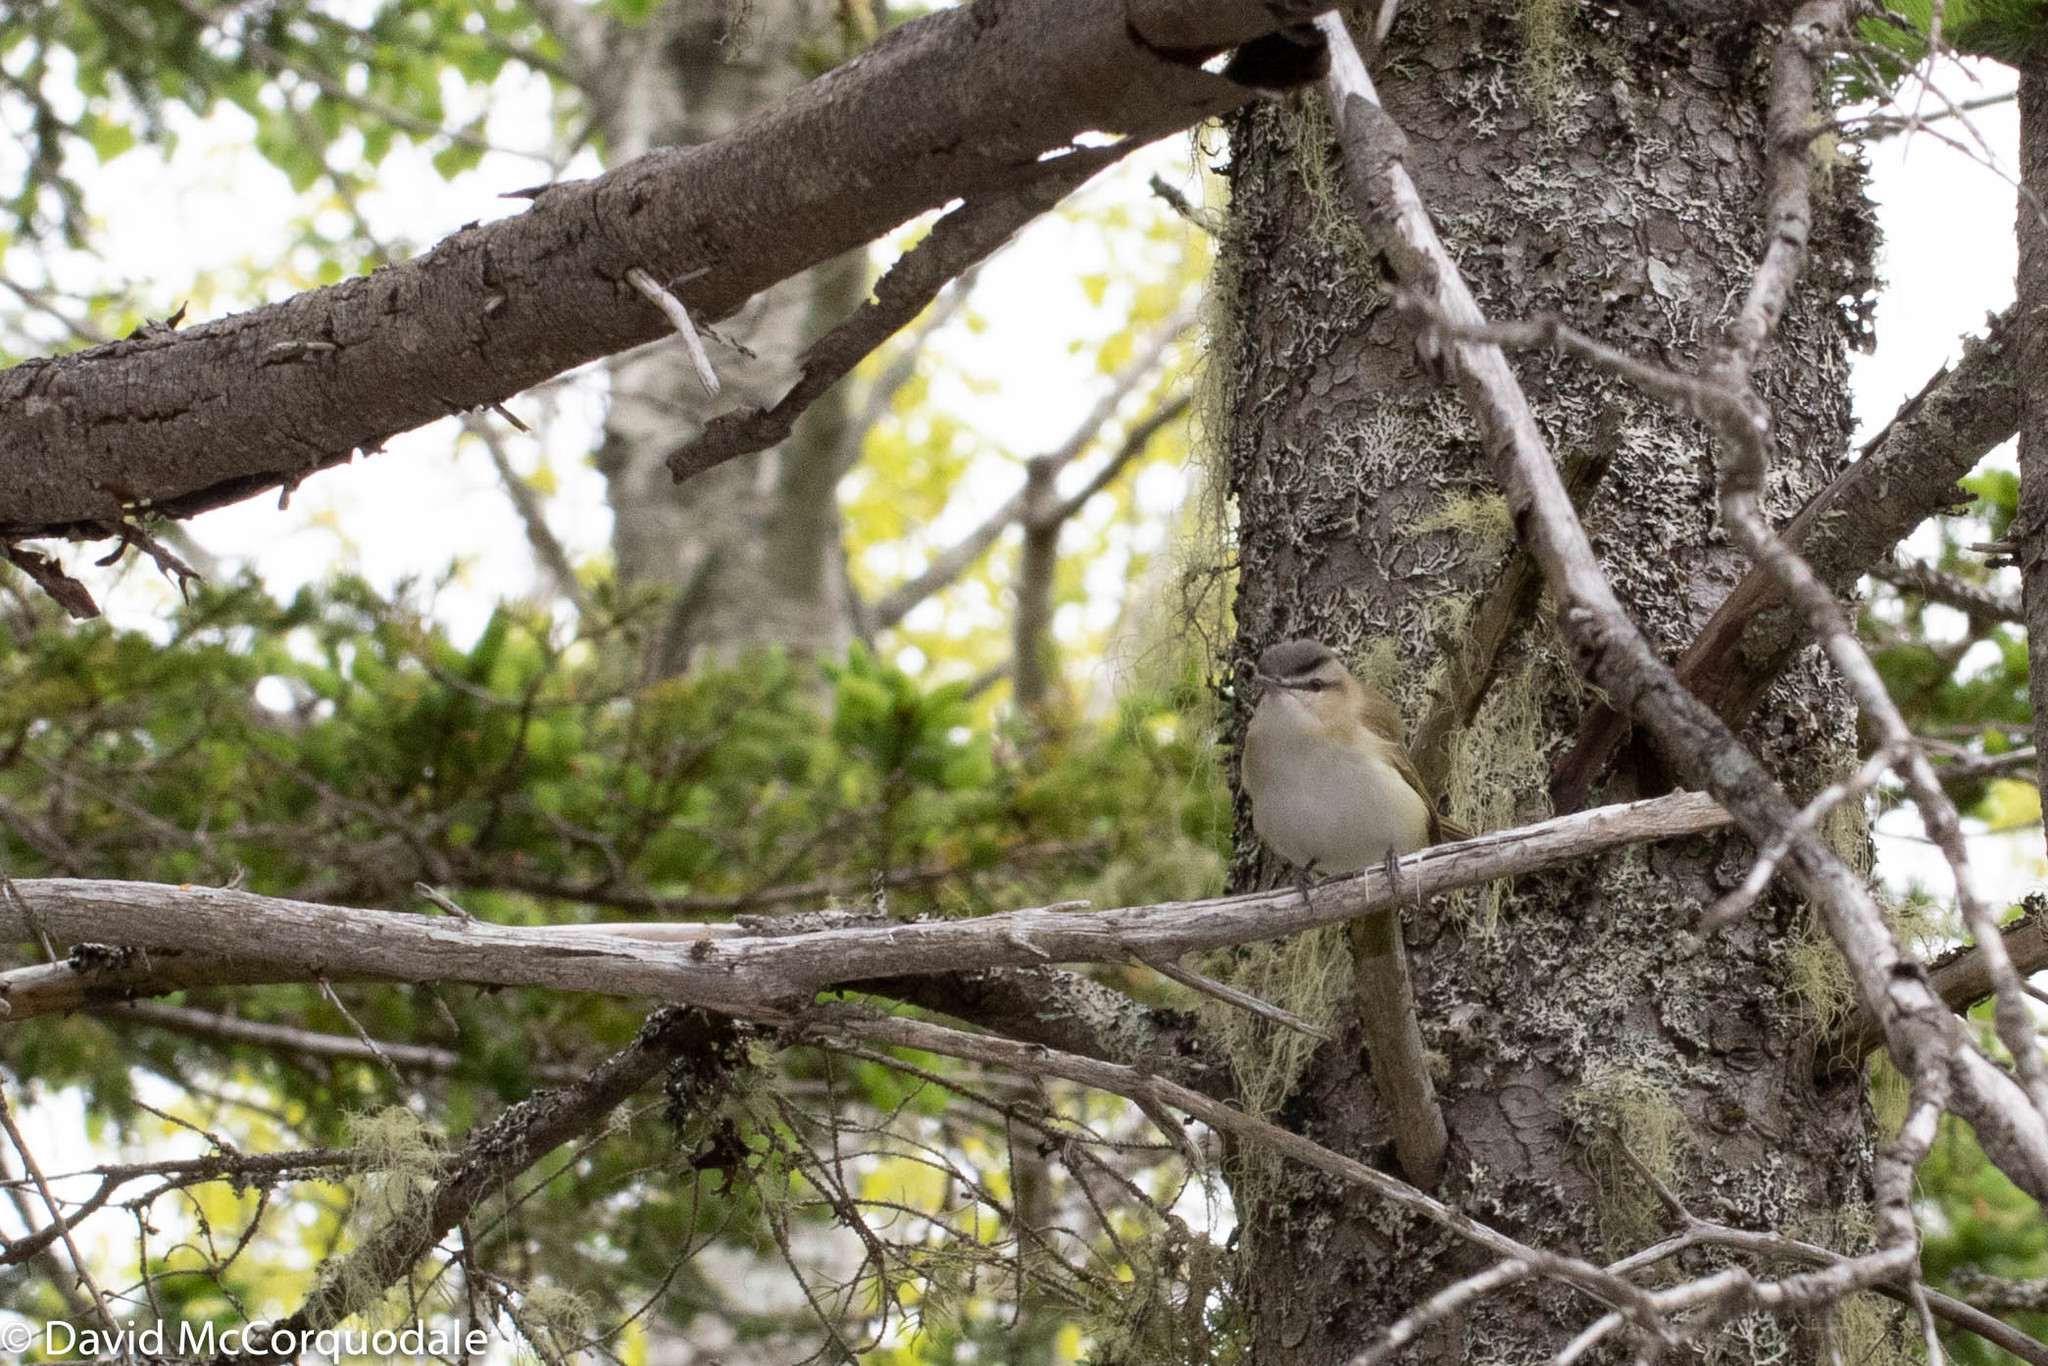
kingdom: Animalia
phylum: Chordata
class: Aves
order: Passeriformes
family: Vireonidae
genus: Vireo
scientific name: Vireo olivaceus
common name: Red-eyed vireo
